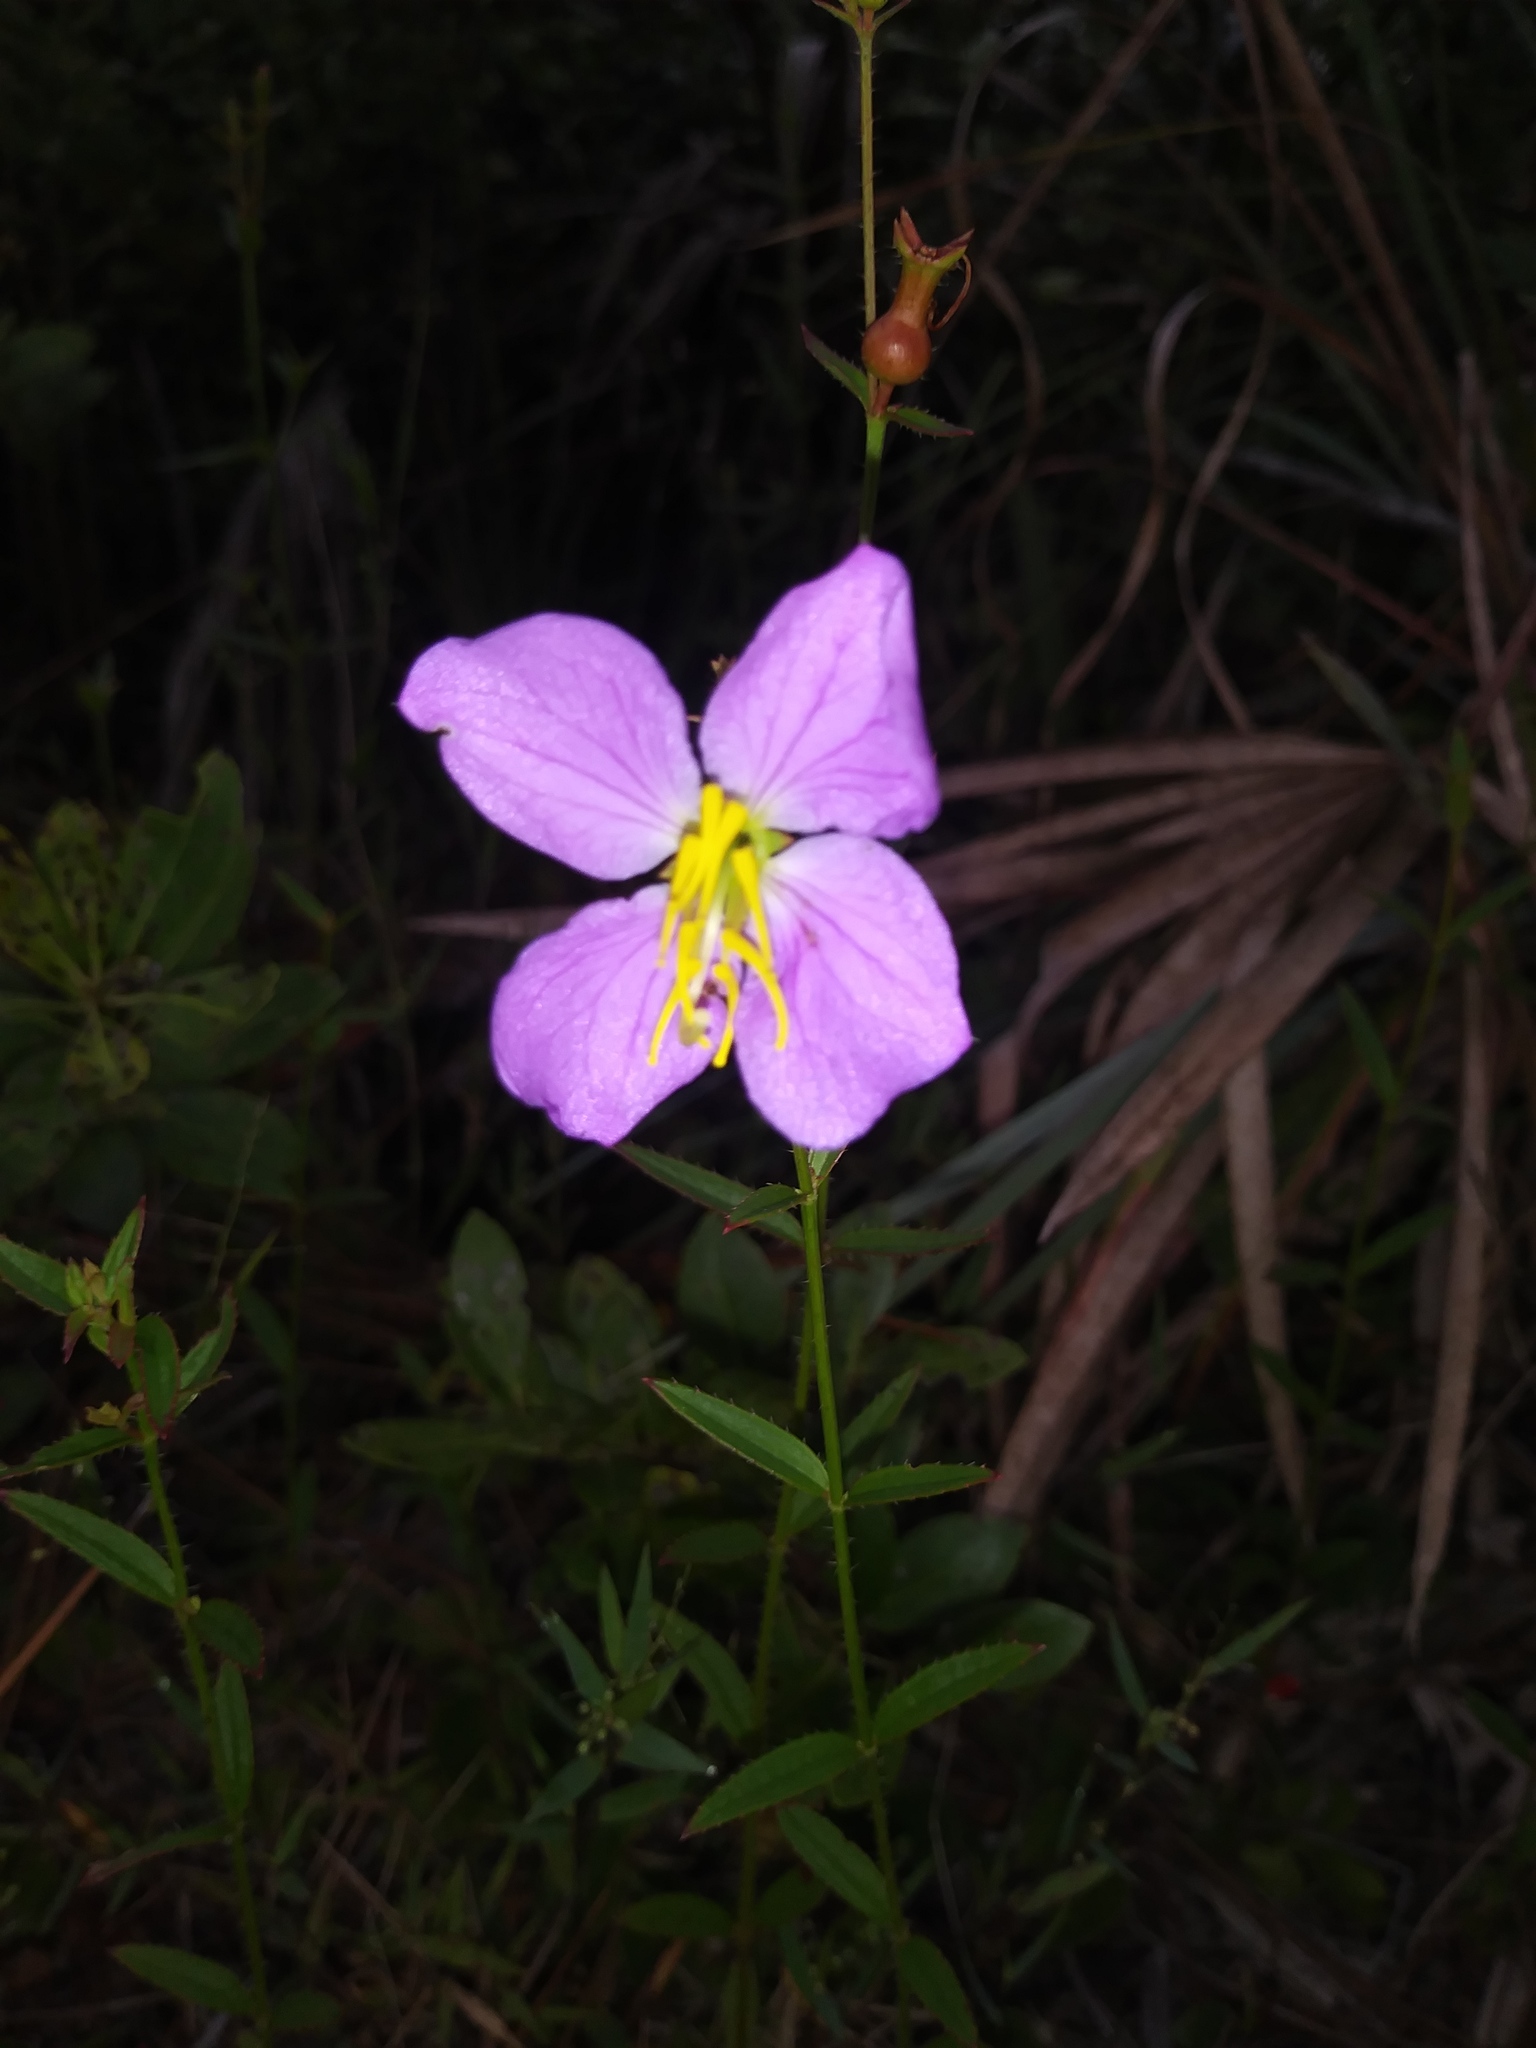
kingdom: Plantae
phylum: Tracheophyta
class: Magnoliopsida
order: Myrtales
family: Melastomataceae
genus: Rhexia
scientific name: Rhexia mariana
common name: Dull meadow-pitcher
